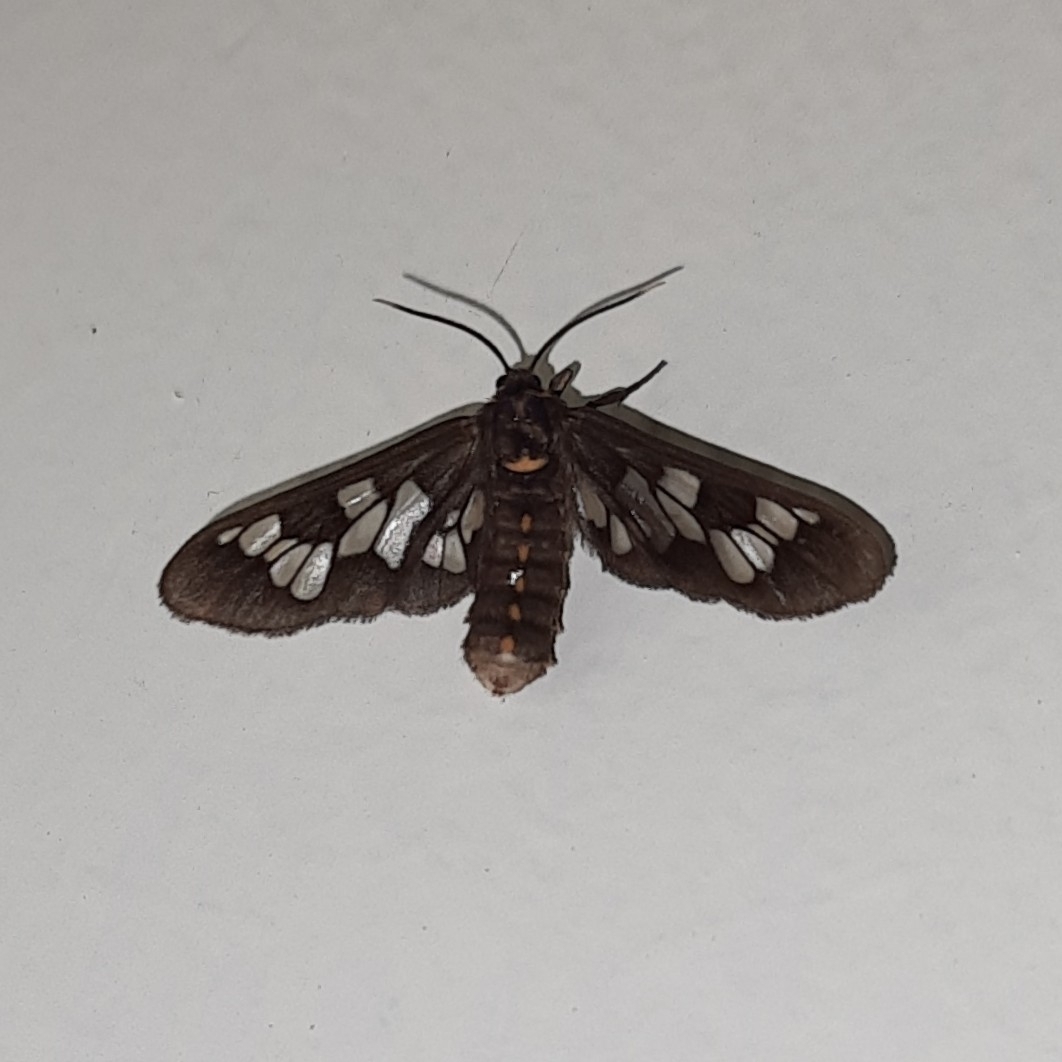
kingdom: Animalia
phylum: Arthropoda
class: Insecta
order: Lepidoptera
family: Erebidae
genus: Eressa
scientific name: Eressa confinis
